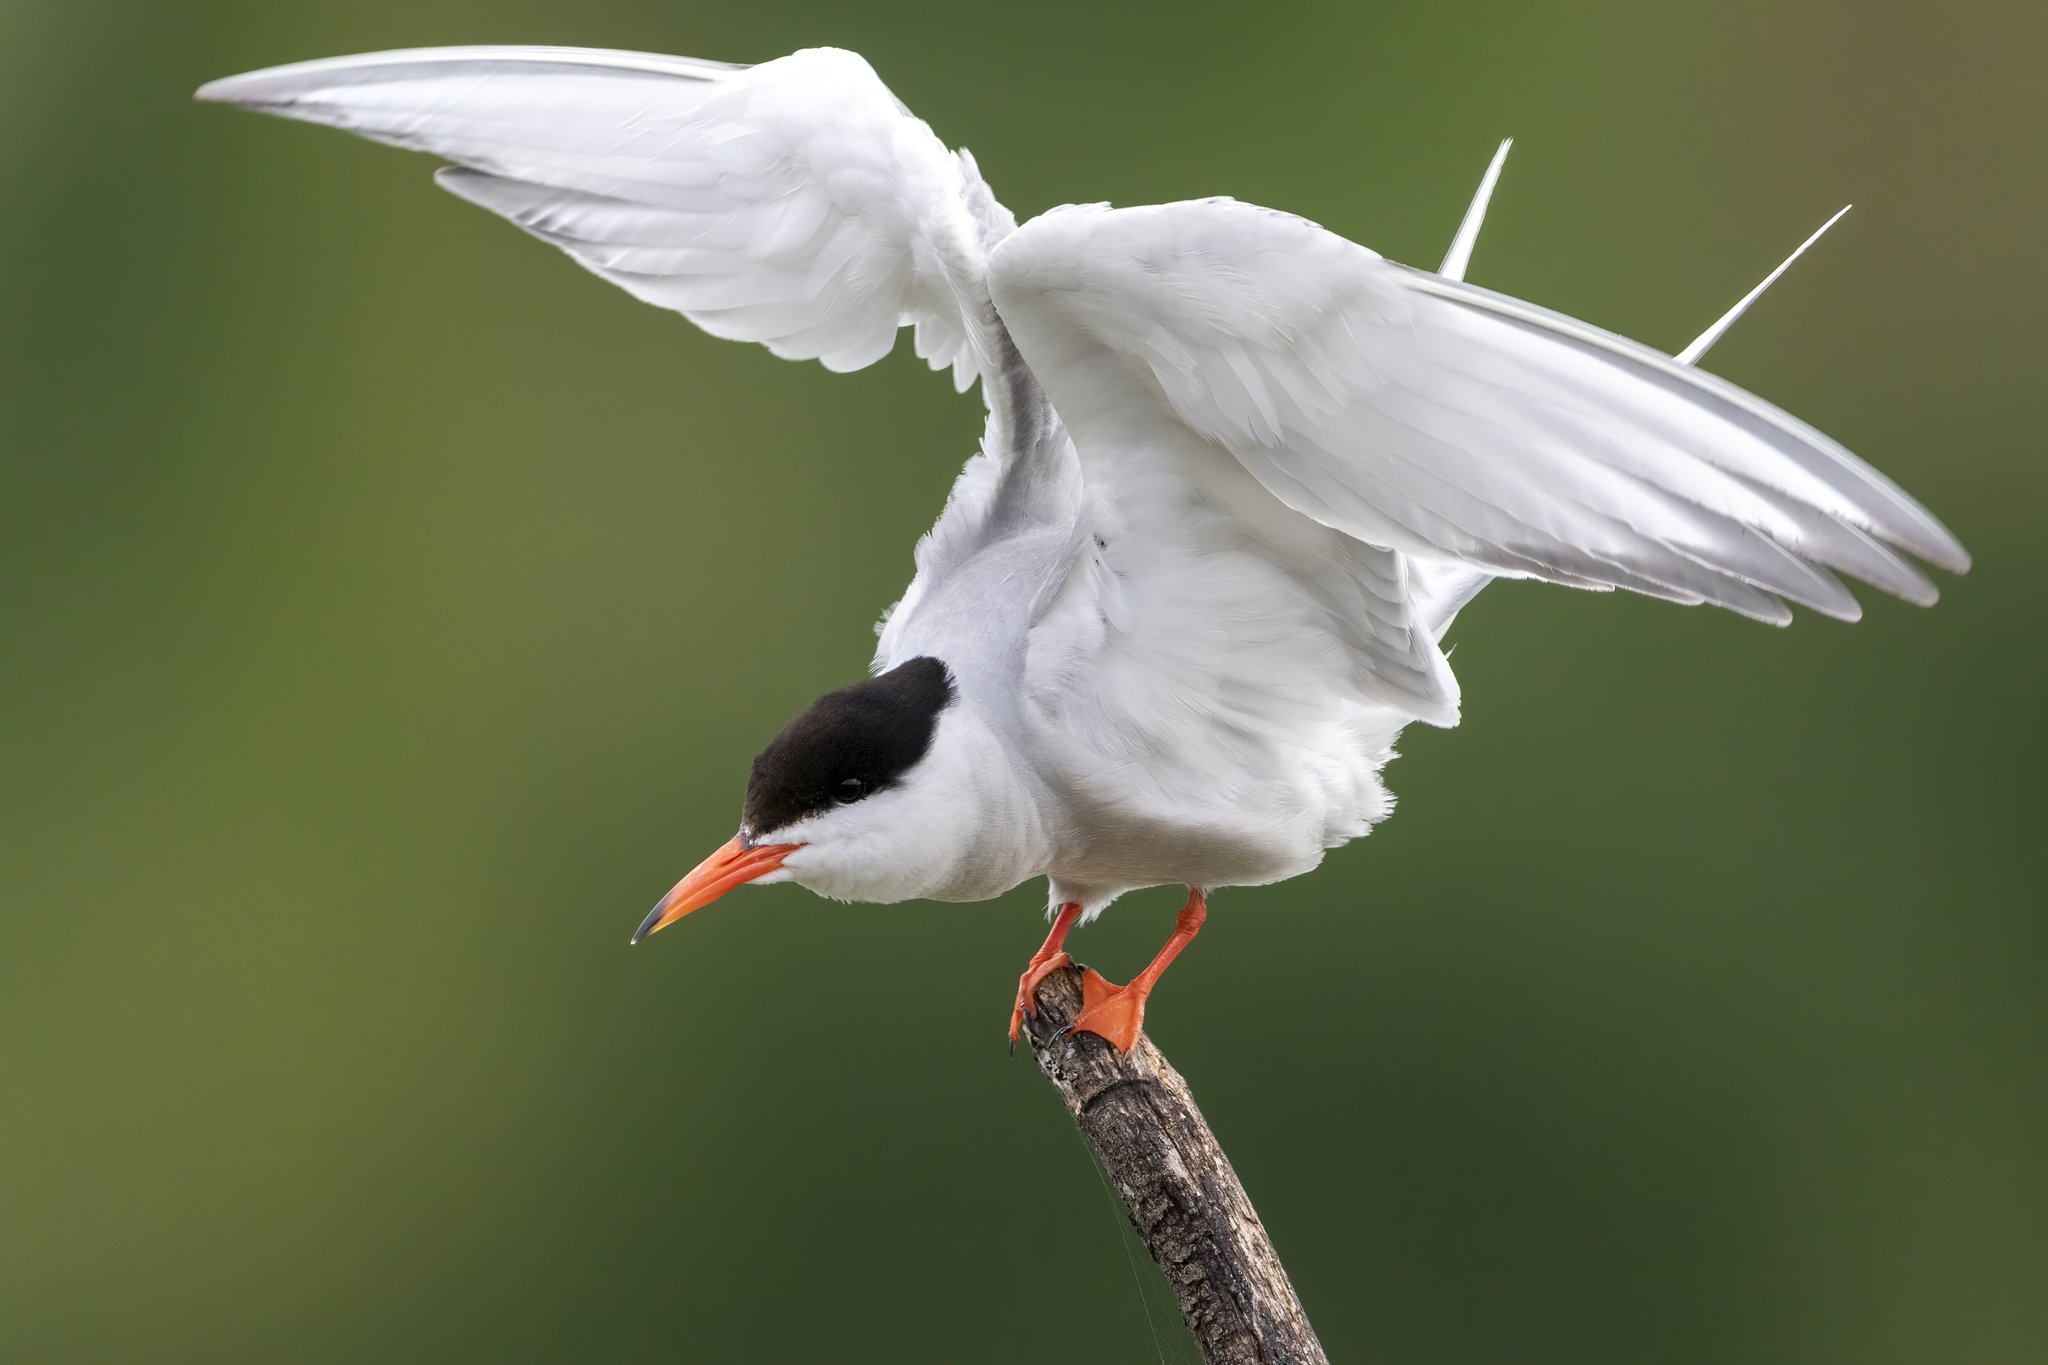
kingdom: Animalia
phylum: Chordata
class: Aves
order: Charadriiformes
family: Laridae
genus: Sterna
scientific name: Sterna hirundo
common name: Common tern
